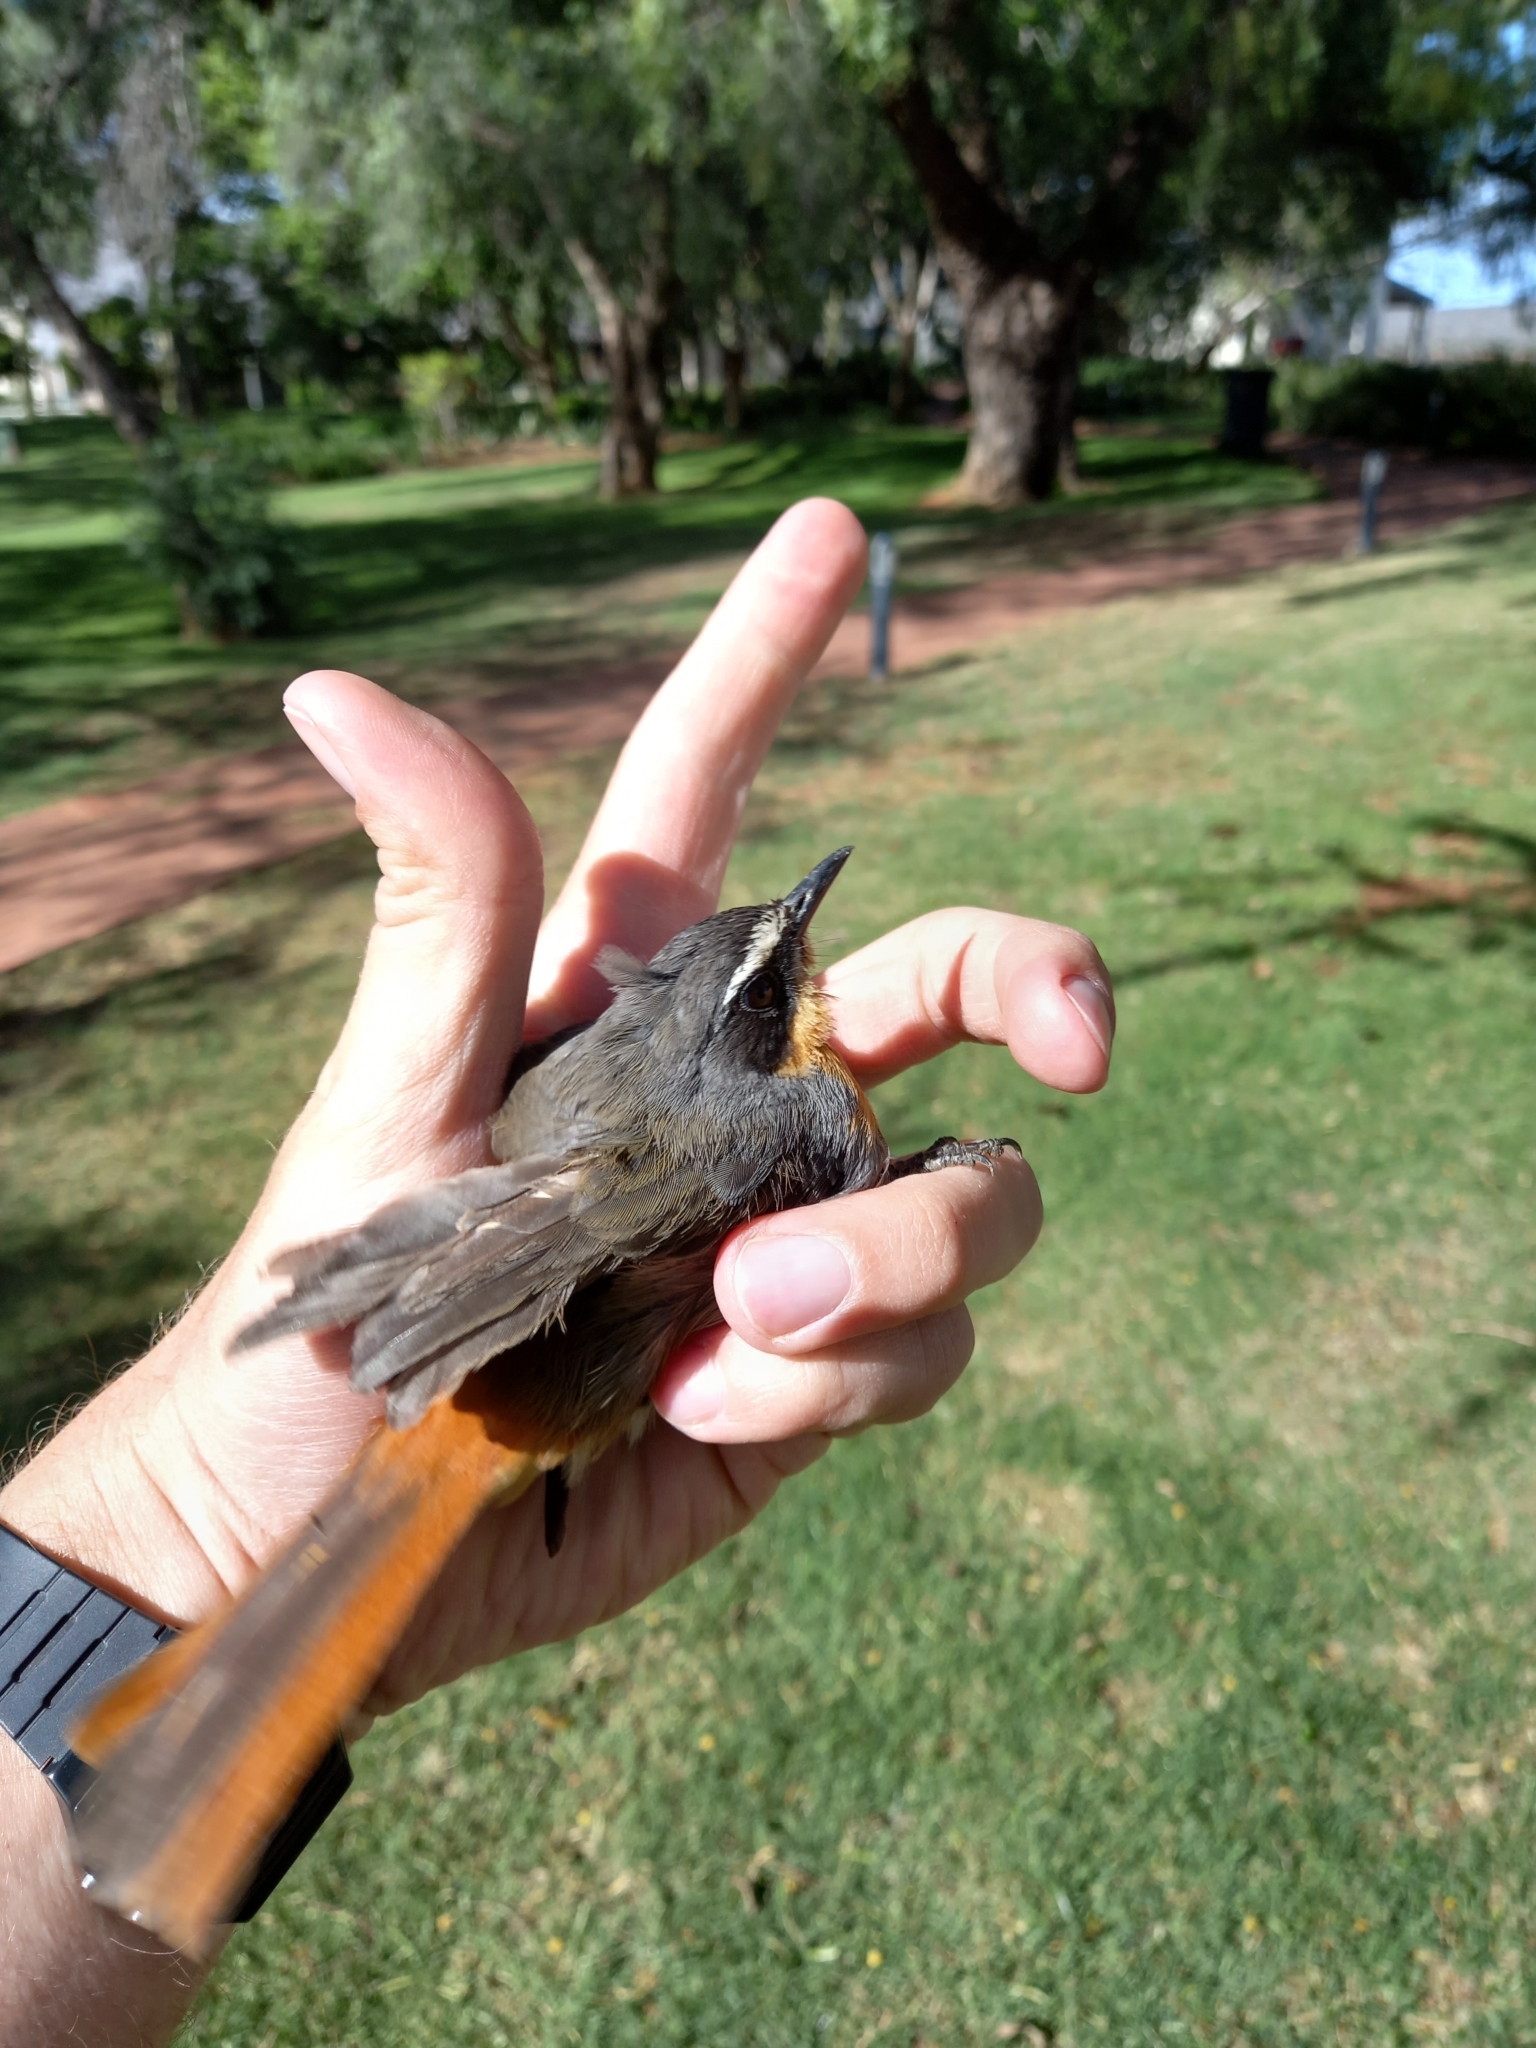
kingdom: Animalia
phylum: Chordata
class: Aves
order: Passeriformes
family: Muscicapidae
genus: Cossypha
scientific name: Cossypha caffra
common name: Cape robin-chat
